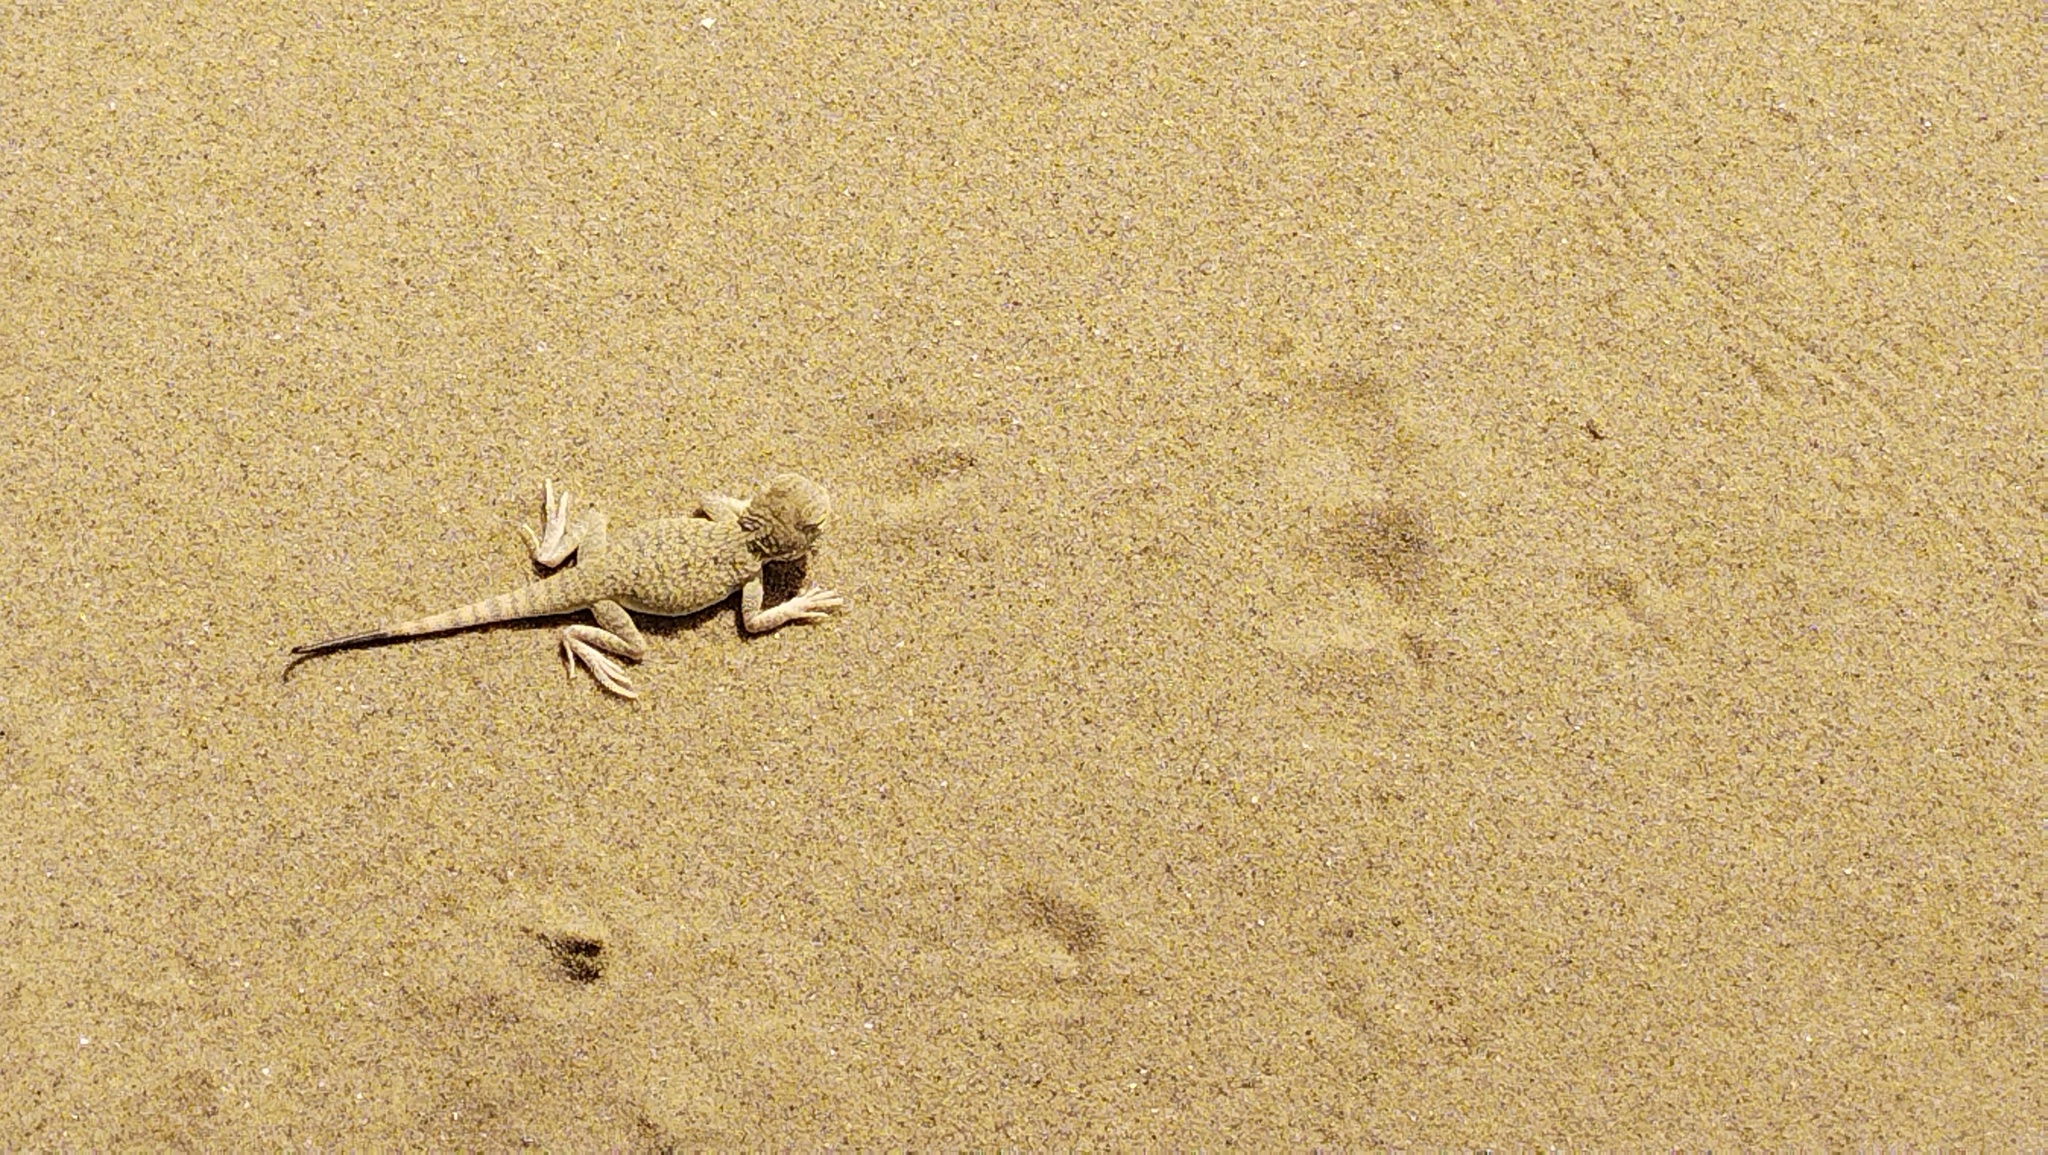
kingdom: Animalia
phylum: Chordata
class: Squamata
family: Agamidae
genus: Phrynocephalus
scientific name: Phrynocephalus mystaceus
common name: Secret toadhead agama
